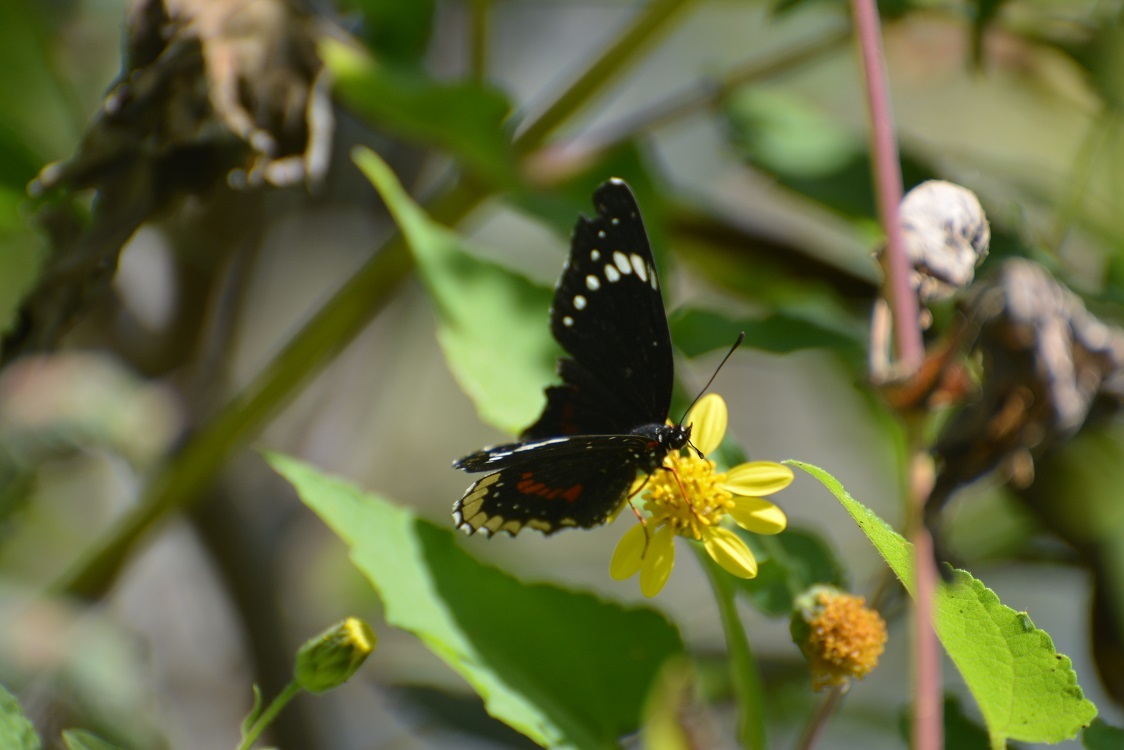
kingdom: Animalia
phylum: Arthropoda
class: Insecta
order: Lepidoptera
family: Nymphalidae
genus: Chlosyne
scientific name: Chlosyne hippodrome
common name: Simple patch
